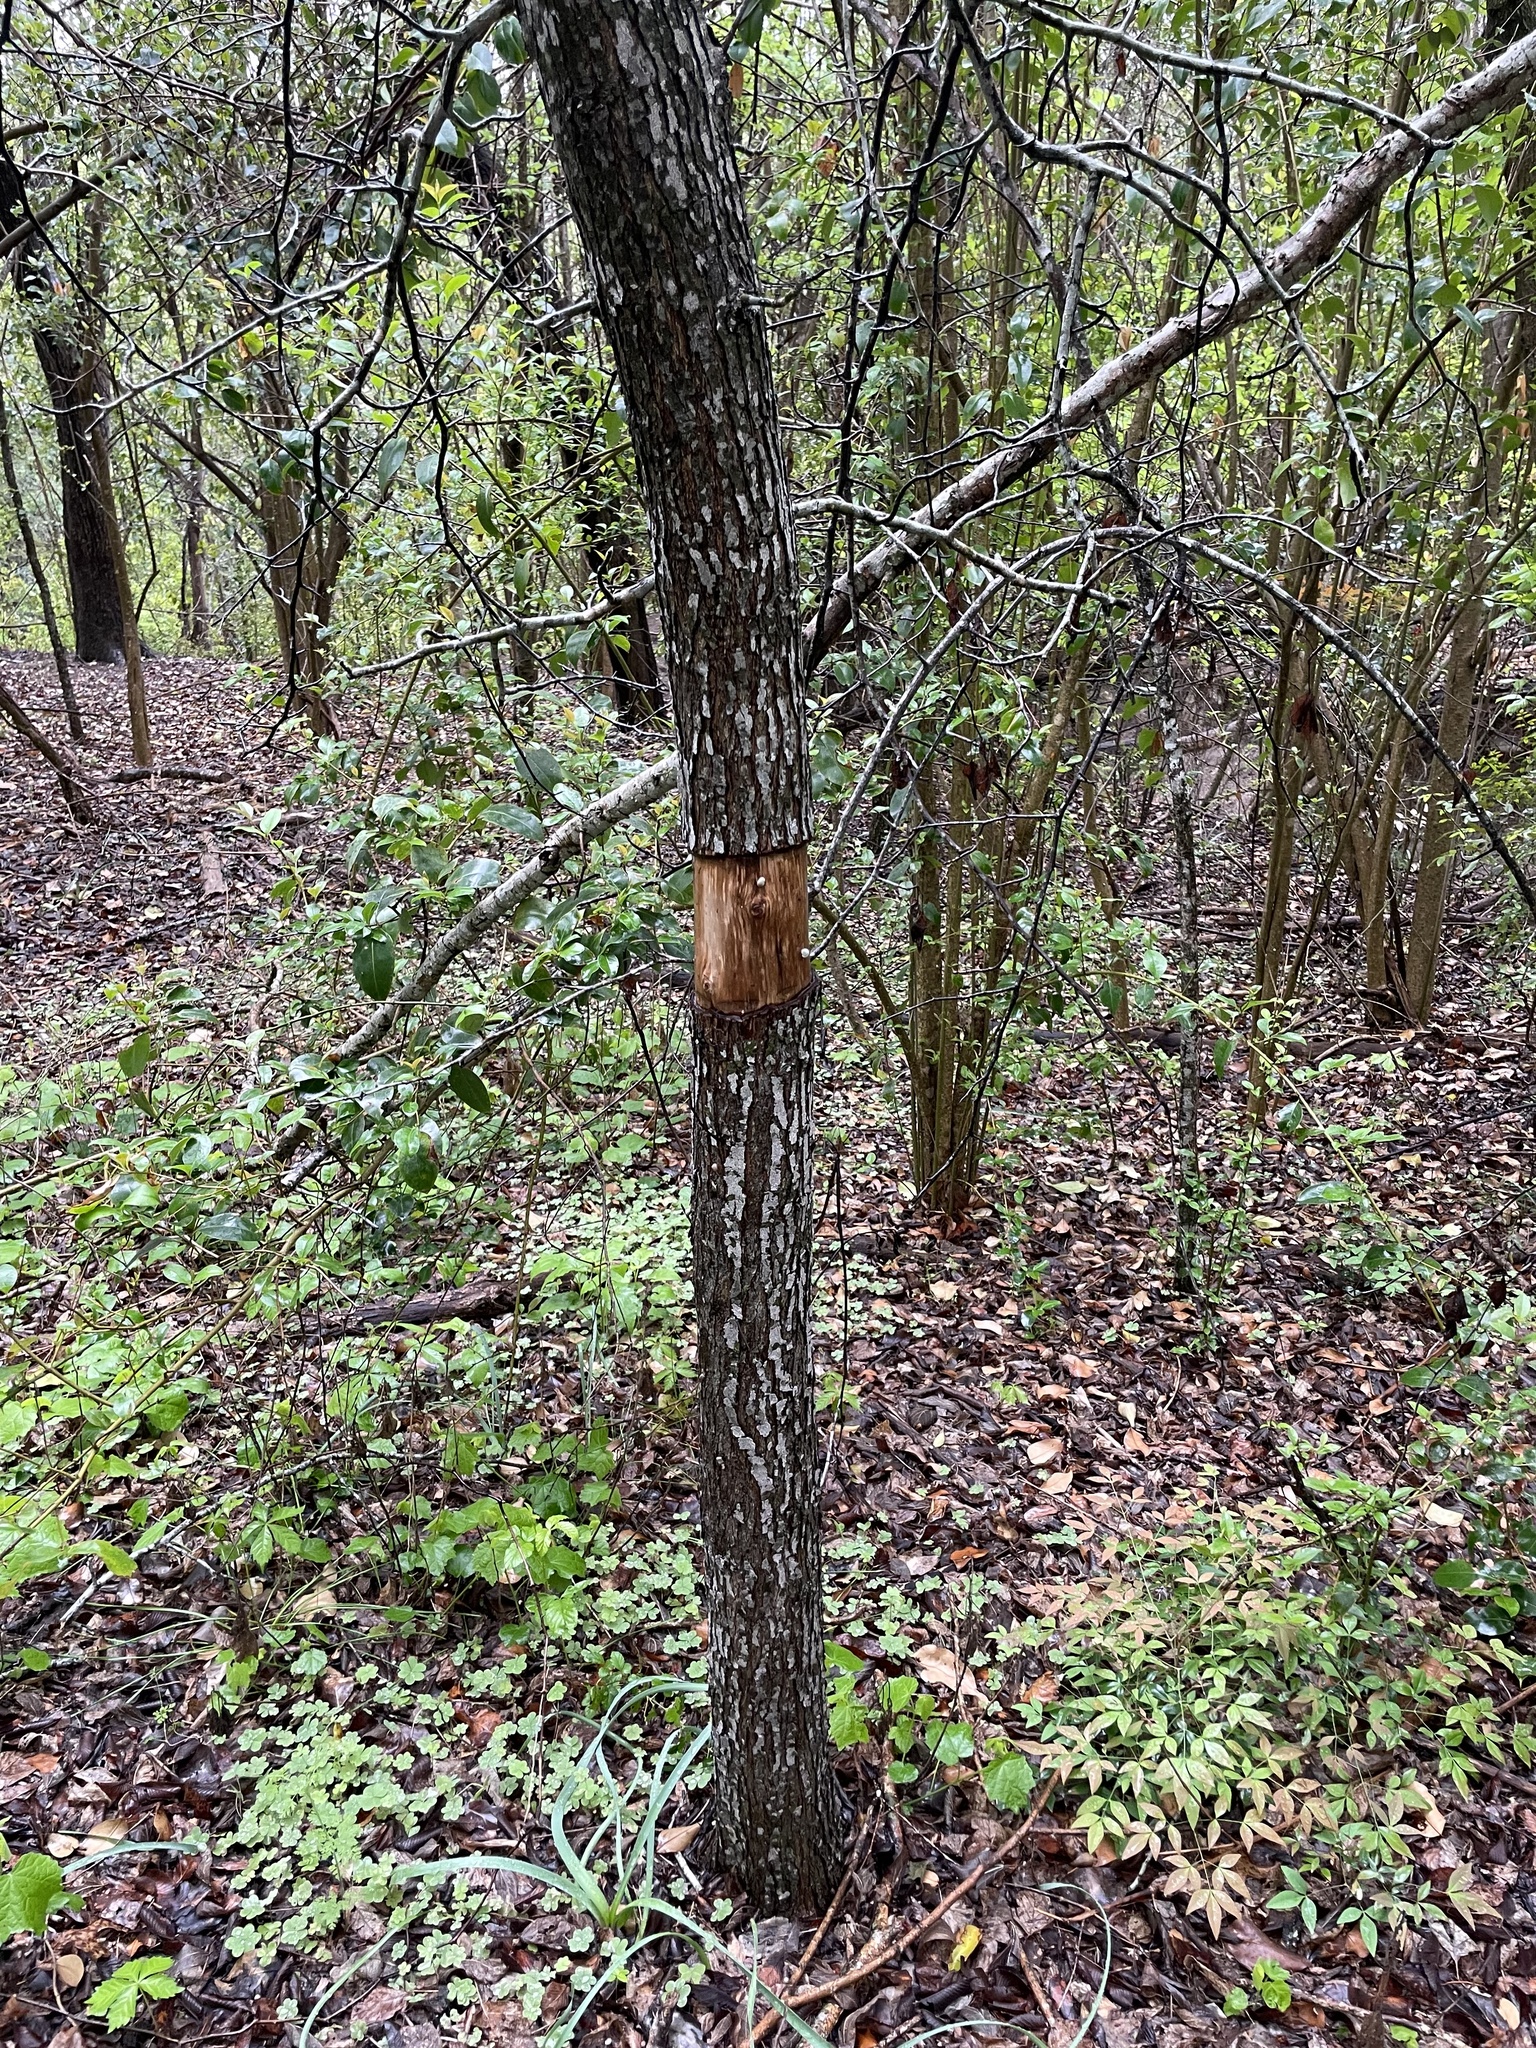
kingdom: Plantae
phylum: Tracheophyta
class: Magnoliopsida
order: Rosales
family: Rosaceae
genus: Pyrus
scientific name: Pyrus calleryana
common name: Callery pear
